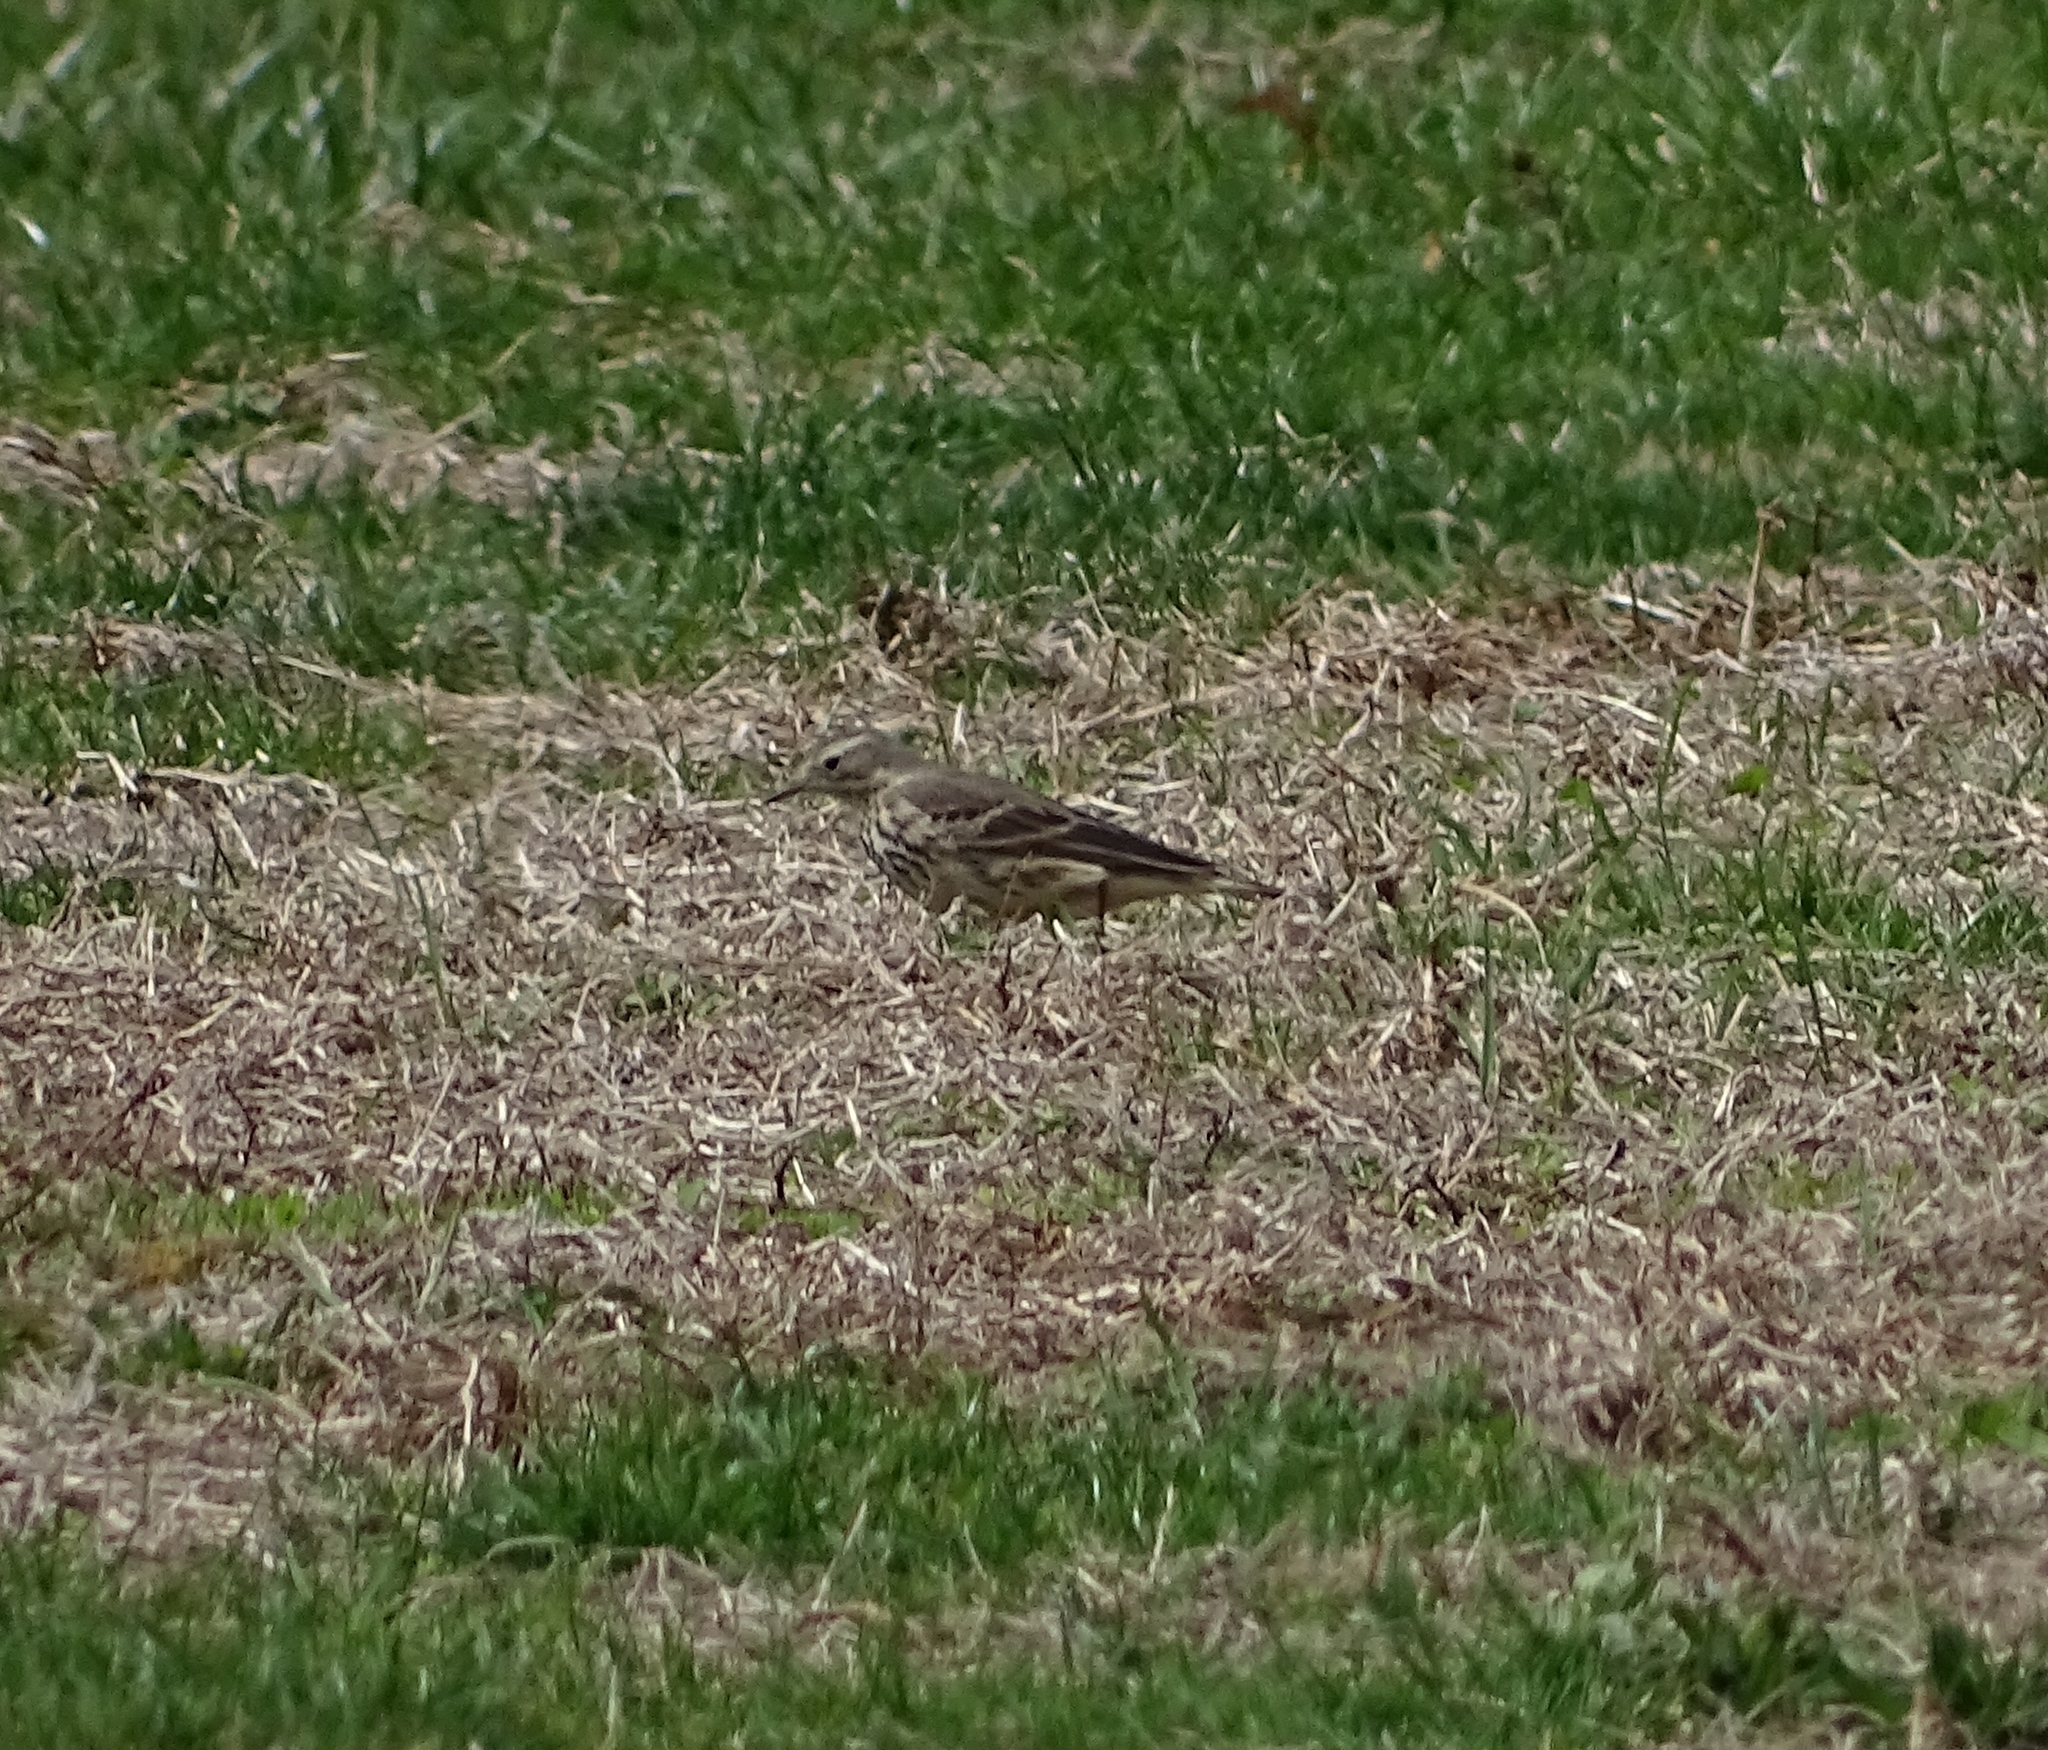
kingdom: Animalia
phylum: Chordata
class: Aves
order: Passeriformes
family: Motacillidae
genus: Anthus
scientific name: Anthus rubescens
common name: Buff-bellied pipit
